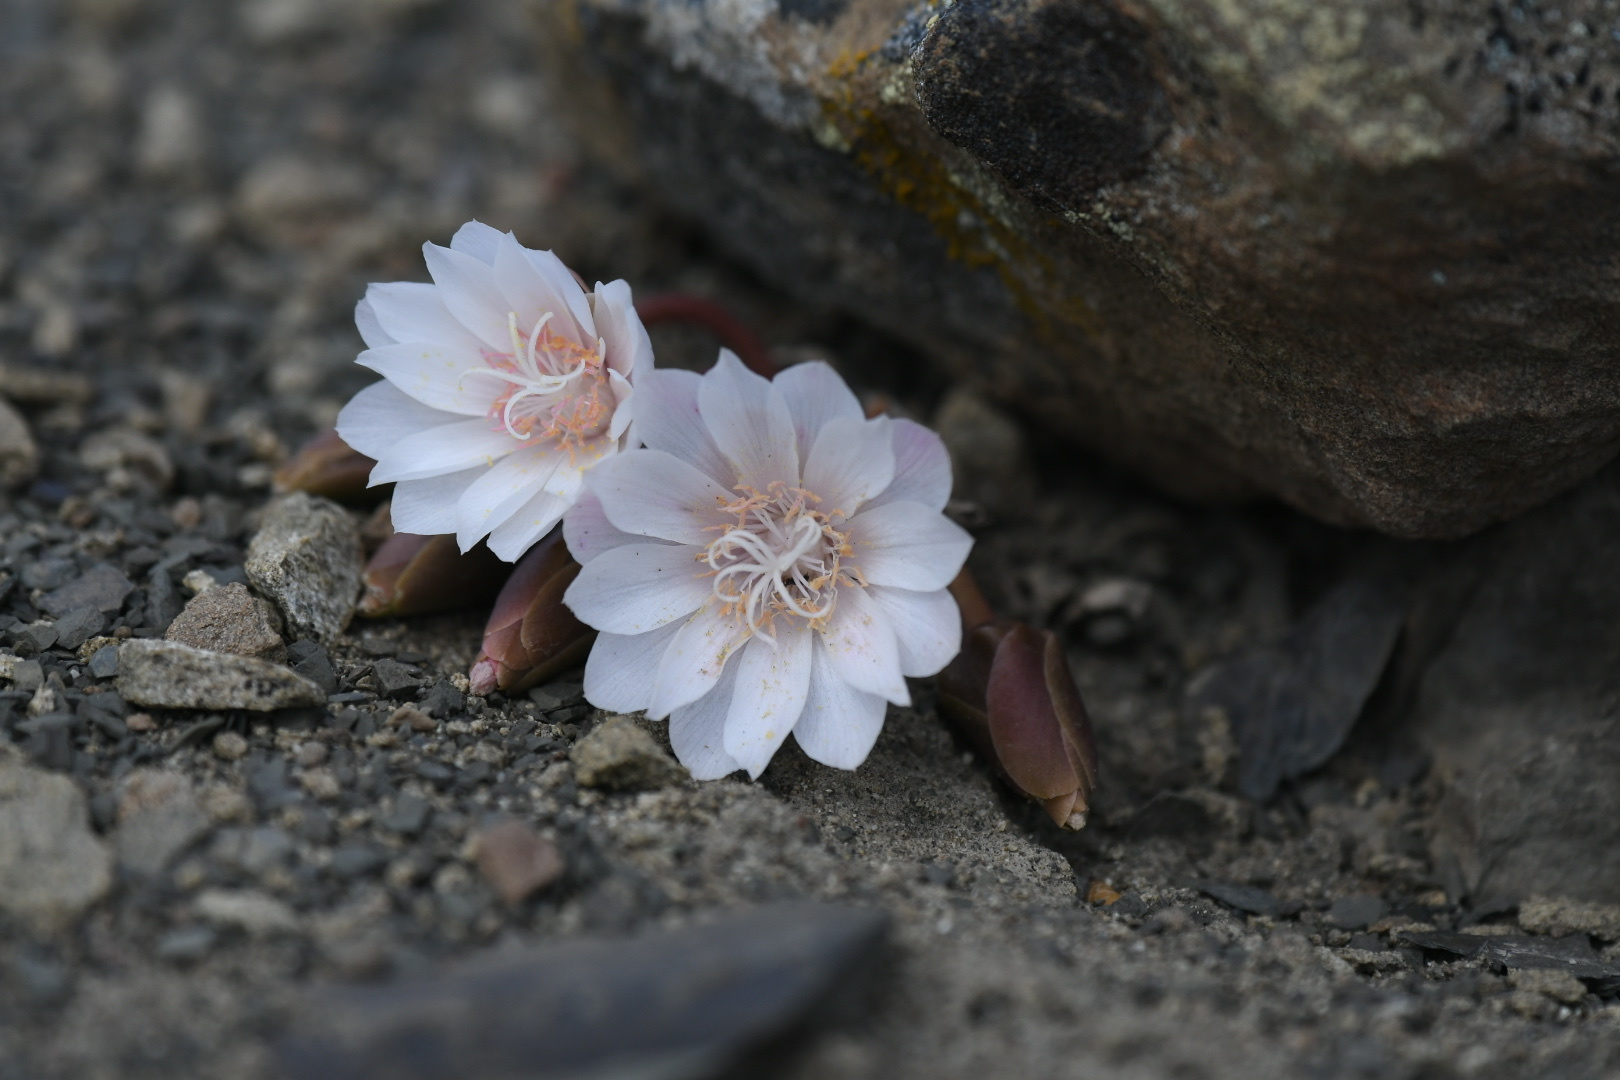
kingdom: Plantae
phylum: Tracheophyta
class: Magnoliopsida
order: Caryophyllales
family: Montiaceae
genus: Lewisia
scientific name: Lewisia rediviva
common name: Bitter-root
